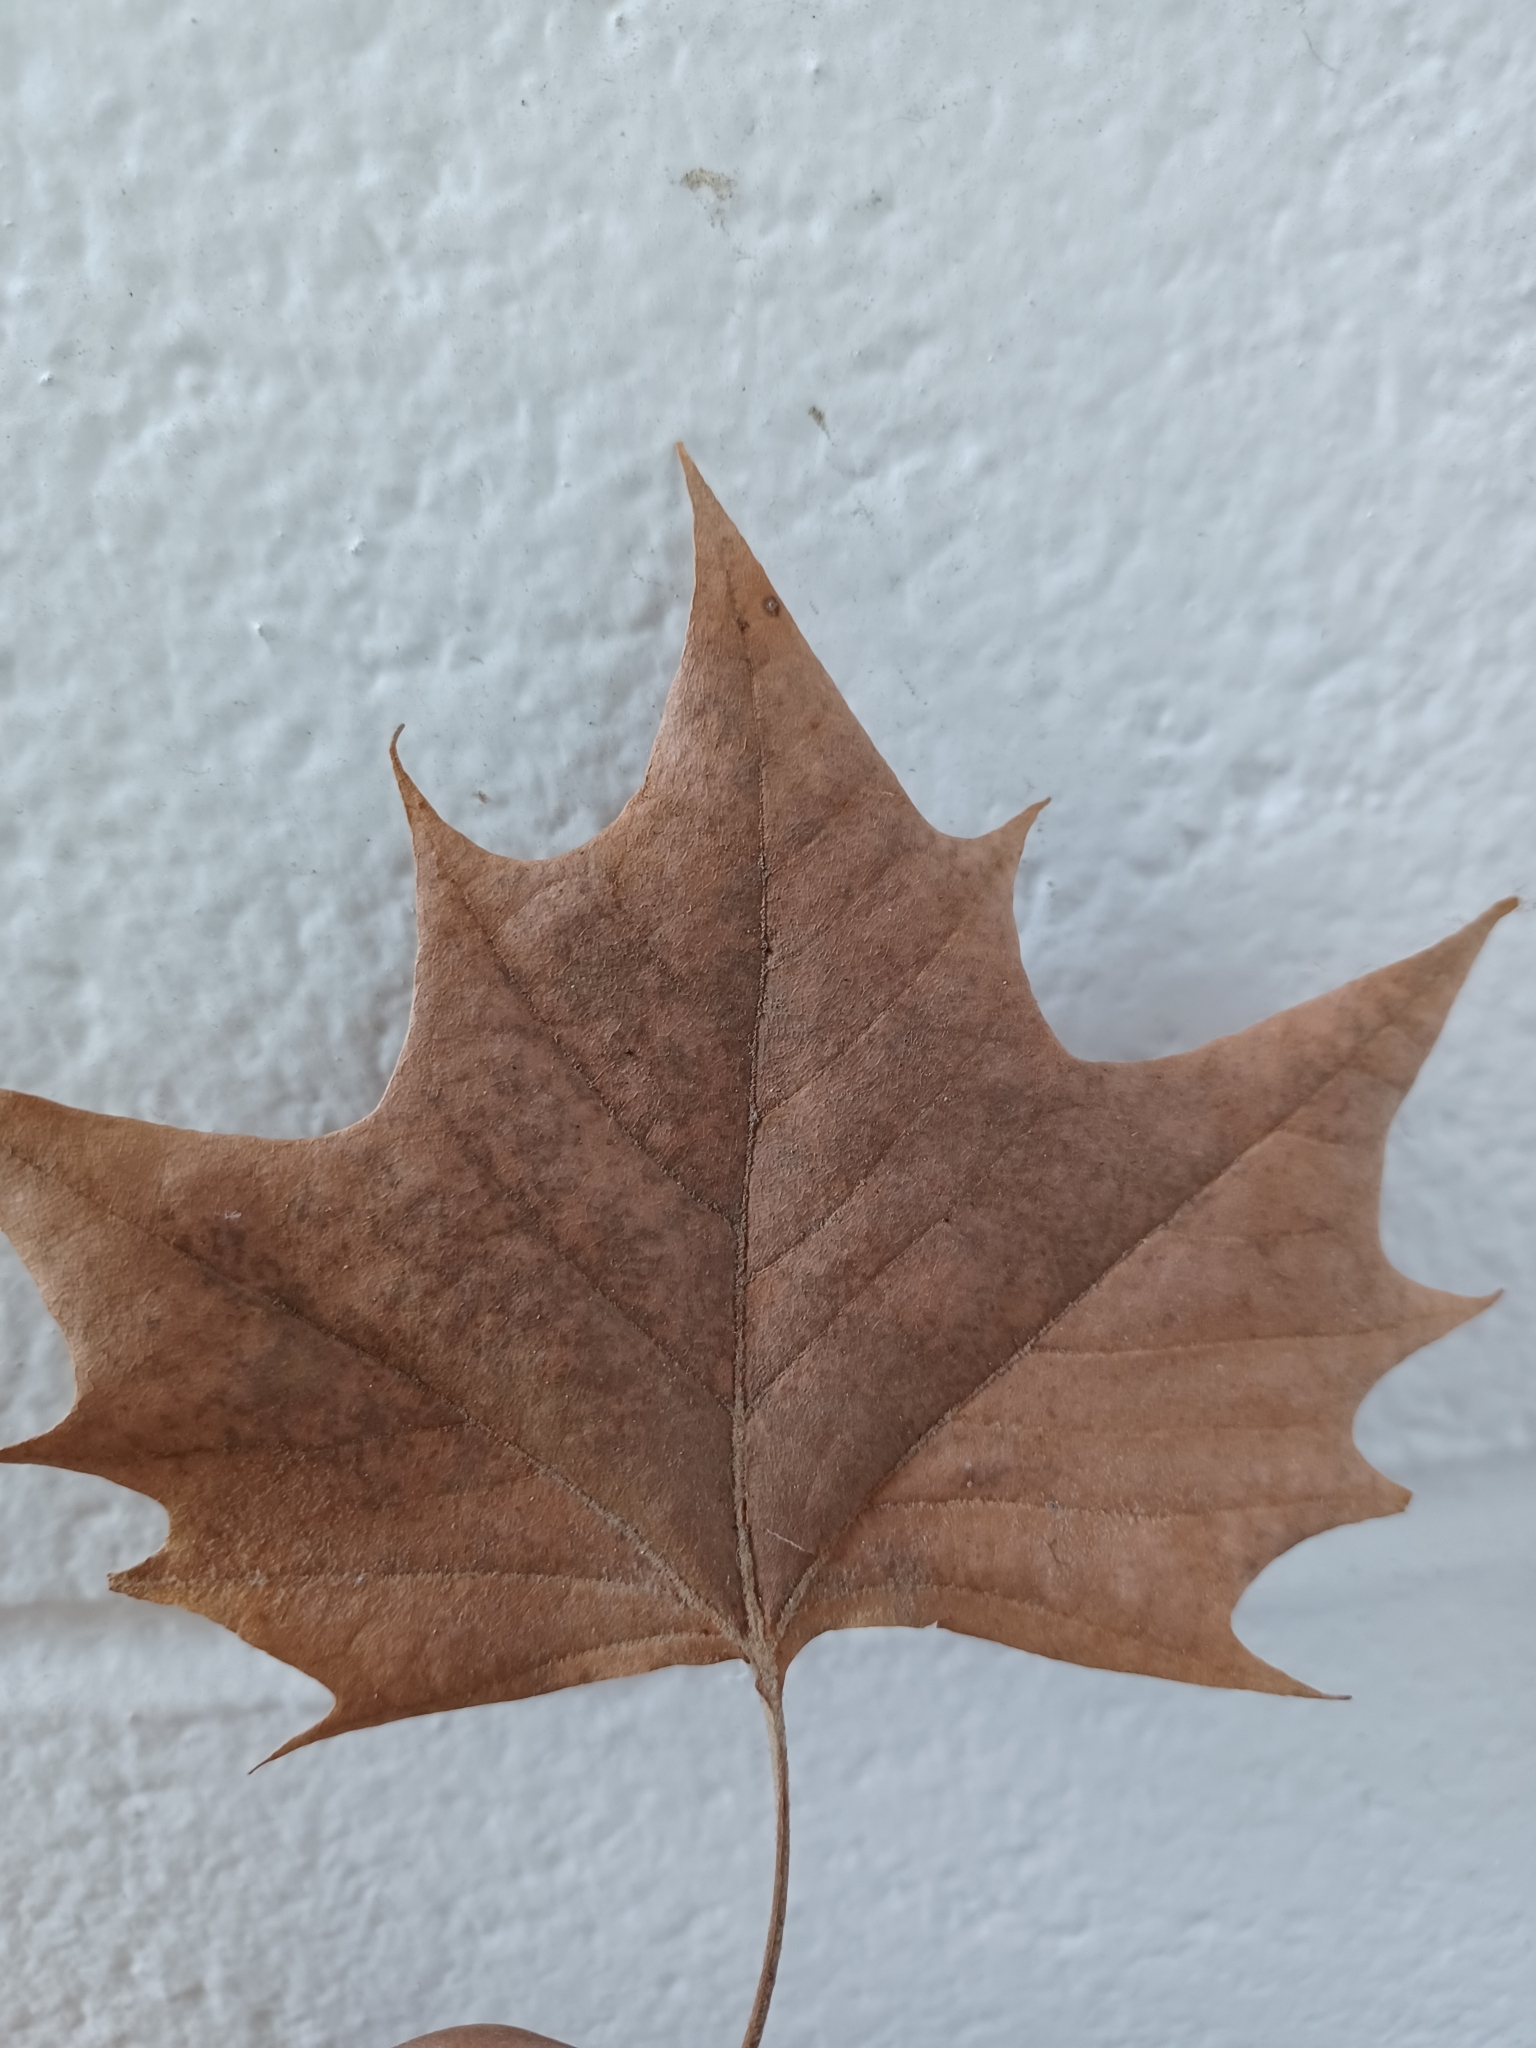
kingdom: Plantae
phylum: Tracheophyta
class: Magnoliopsida
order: Proteales
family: Platanaceae
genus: Platanus
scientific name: Platanus occidentalis
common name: American sycamore
